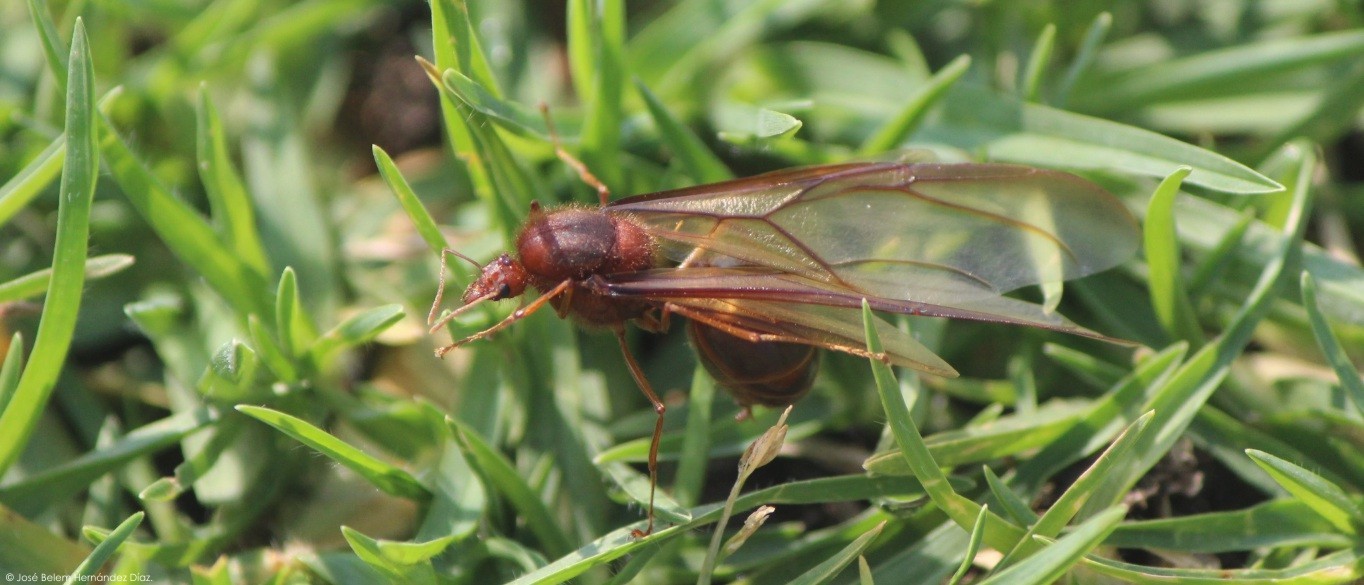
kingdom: Animalia
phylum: Arthropoda
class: Insecta
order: Hymenoptera
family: Formicidae
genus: Atta
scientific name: Atta mexicana
